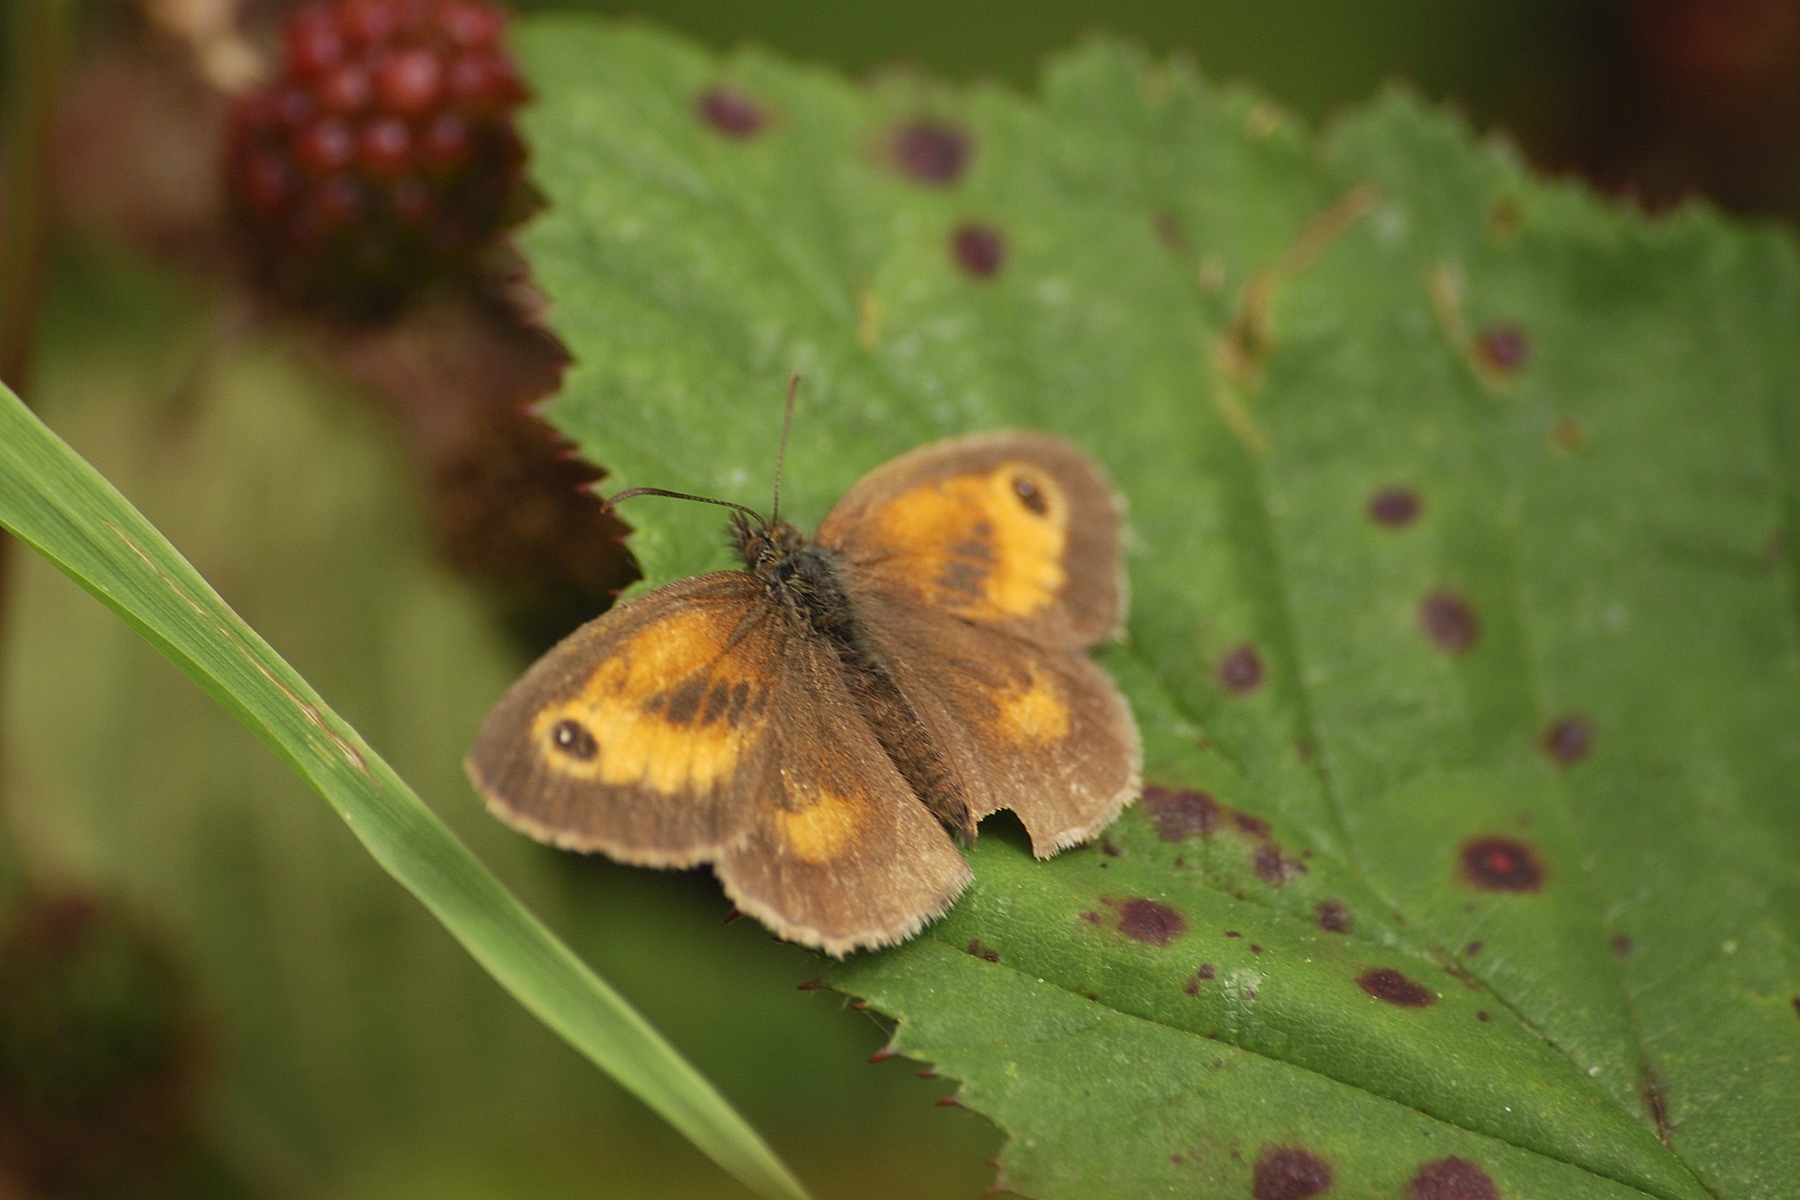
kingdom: Animalia
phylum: Arthropoda
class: Insecta
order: Lepidoptera
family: Nymphalidae
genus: Pyronia
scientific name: Pyronia tithonus
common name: Gatekeeper
